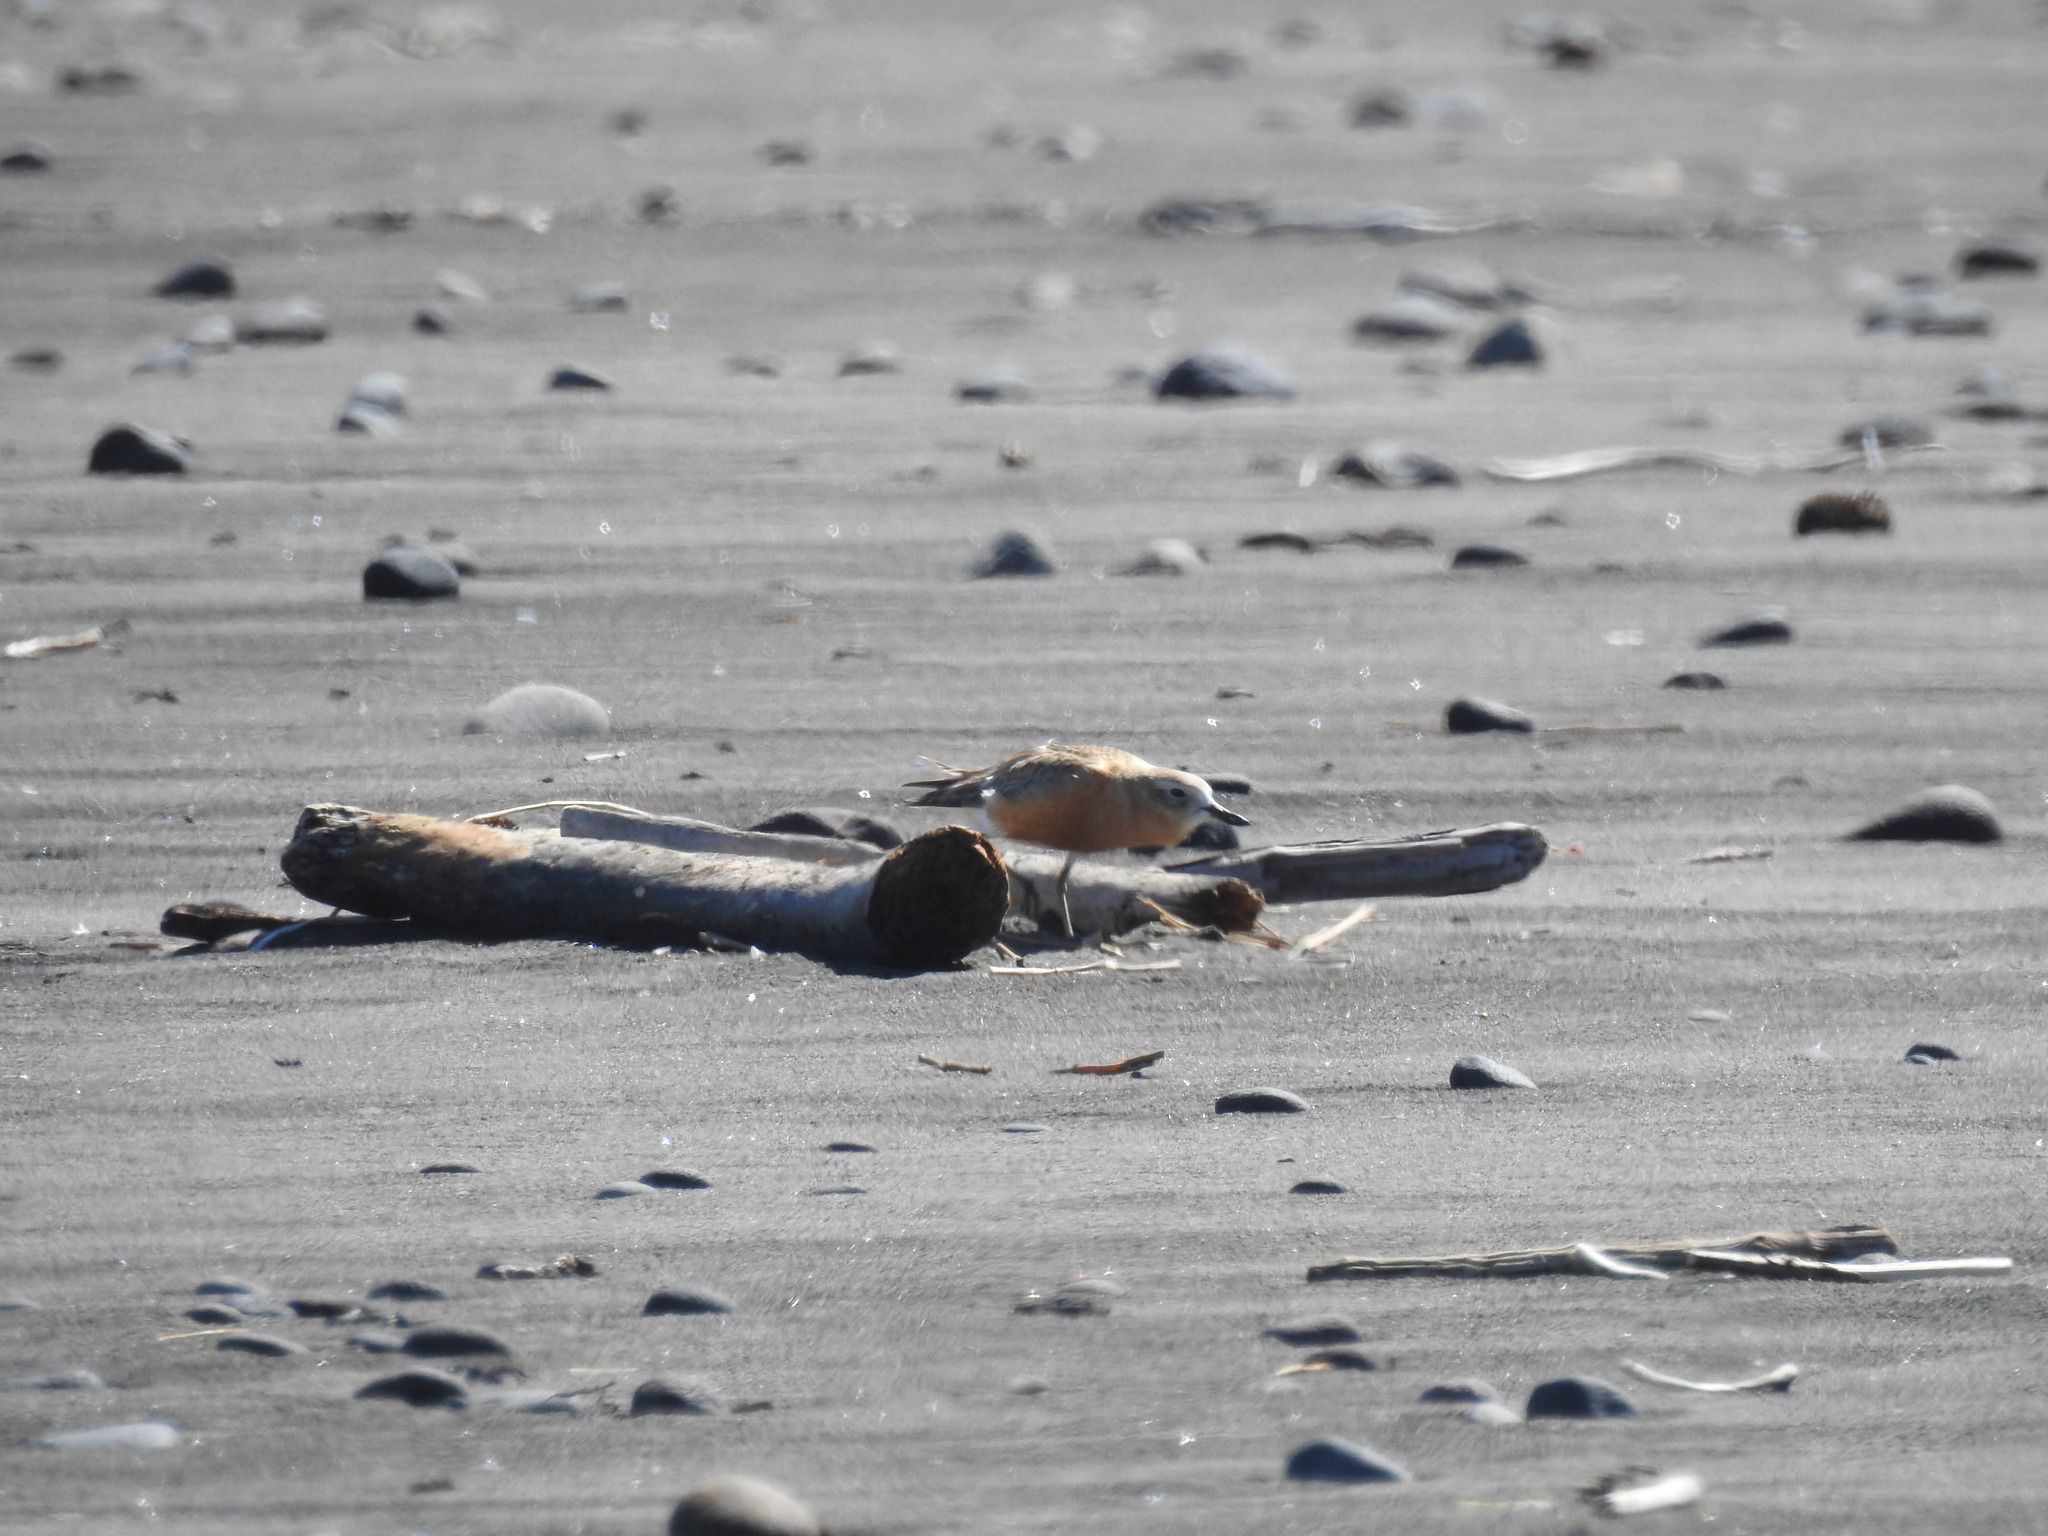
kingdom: Animalia
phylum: Chordata
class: Aves
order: Charadriiformes
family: Charadriidae
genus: Anarhynchus
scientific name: Anarhynchus
